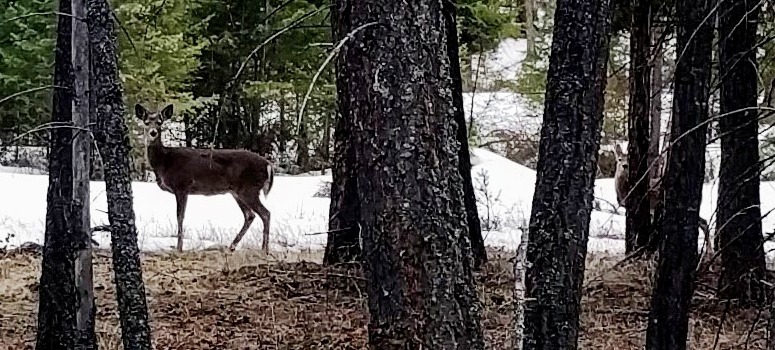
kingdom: Animalia
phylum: Chordata
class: Mammalia
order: Artiodactyla
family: Cervidae
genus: Odocoileus
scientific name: Odocoileus virginianus
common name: White-tailed deer
